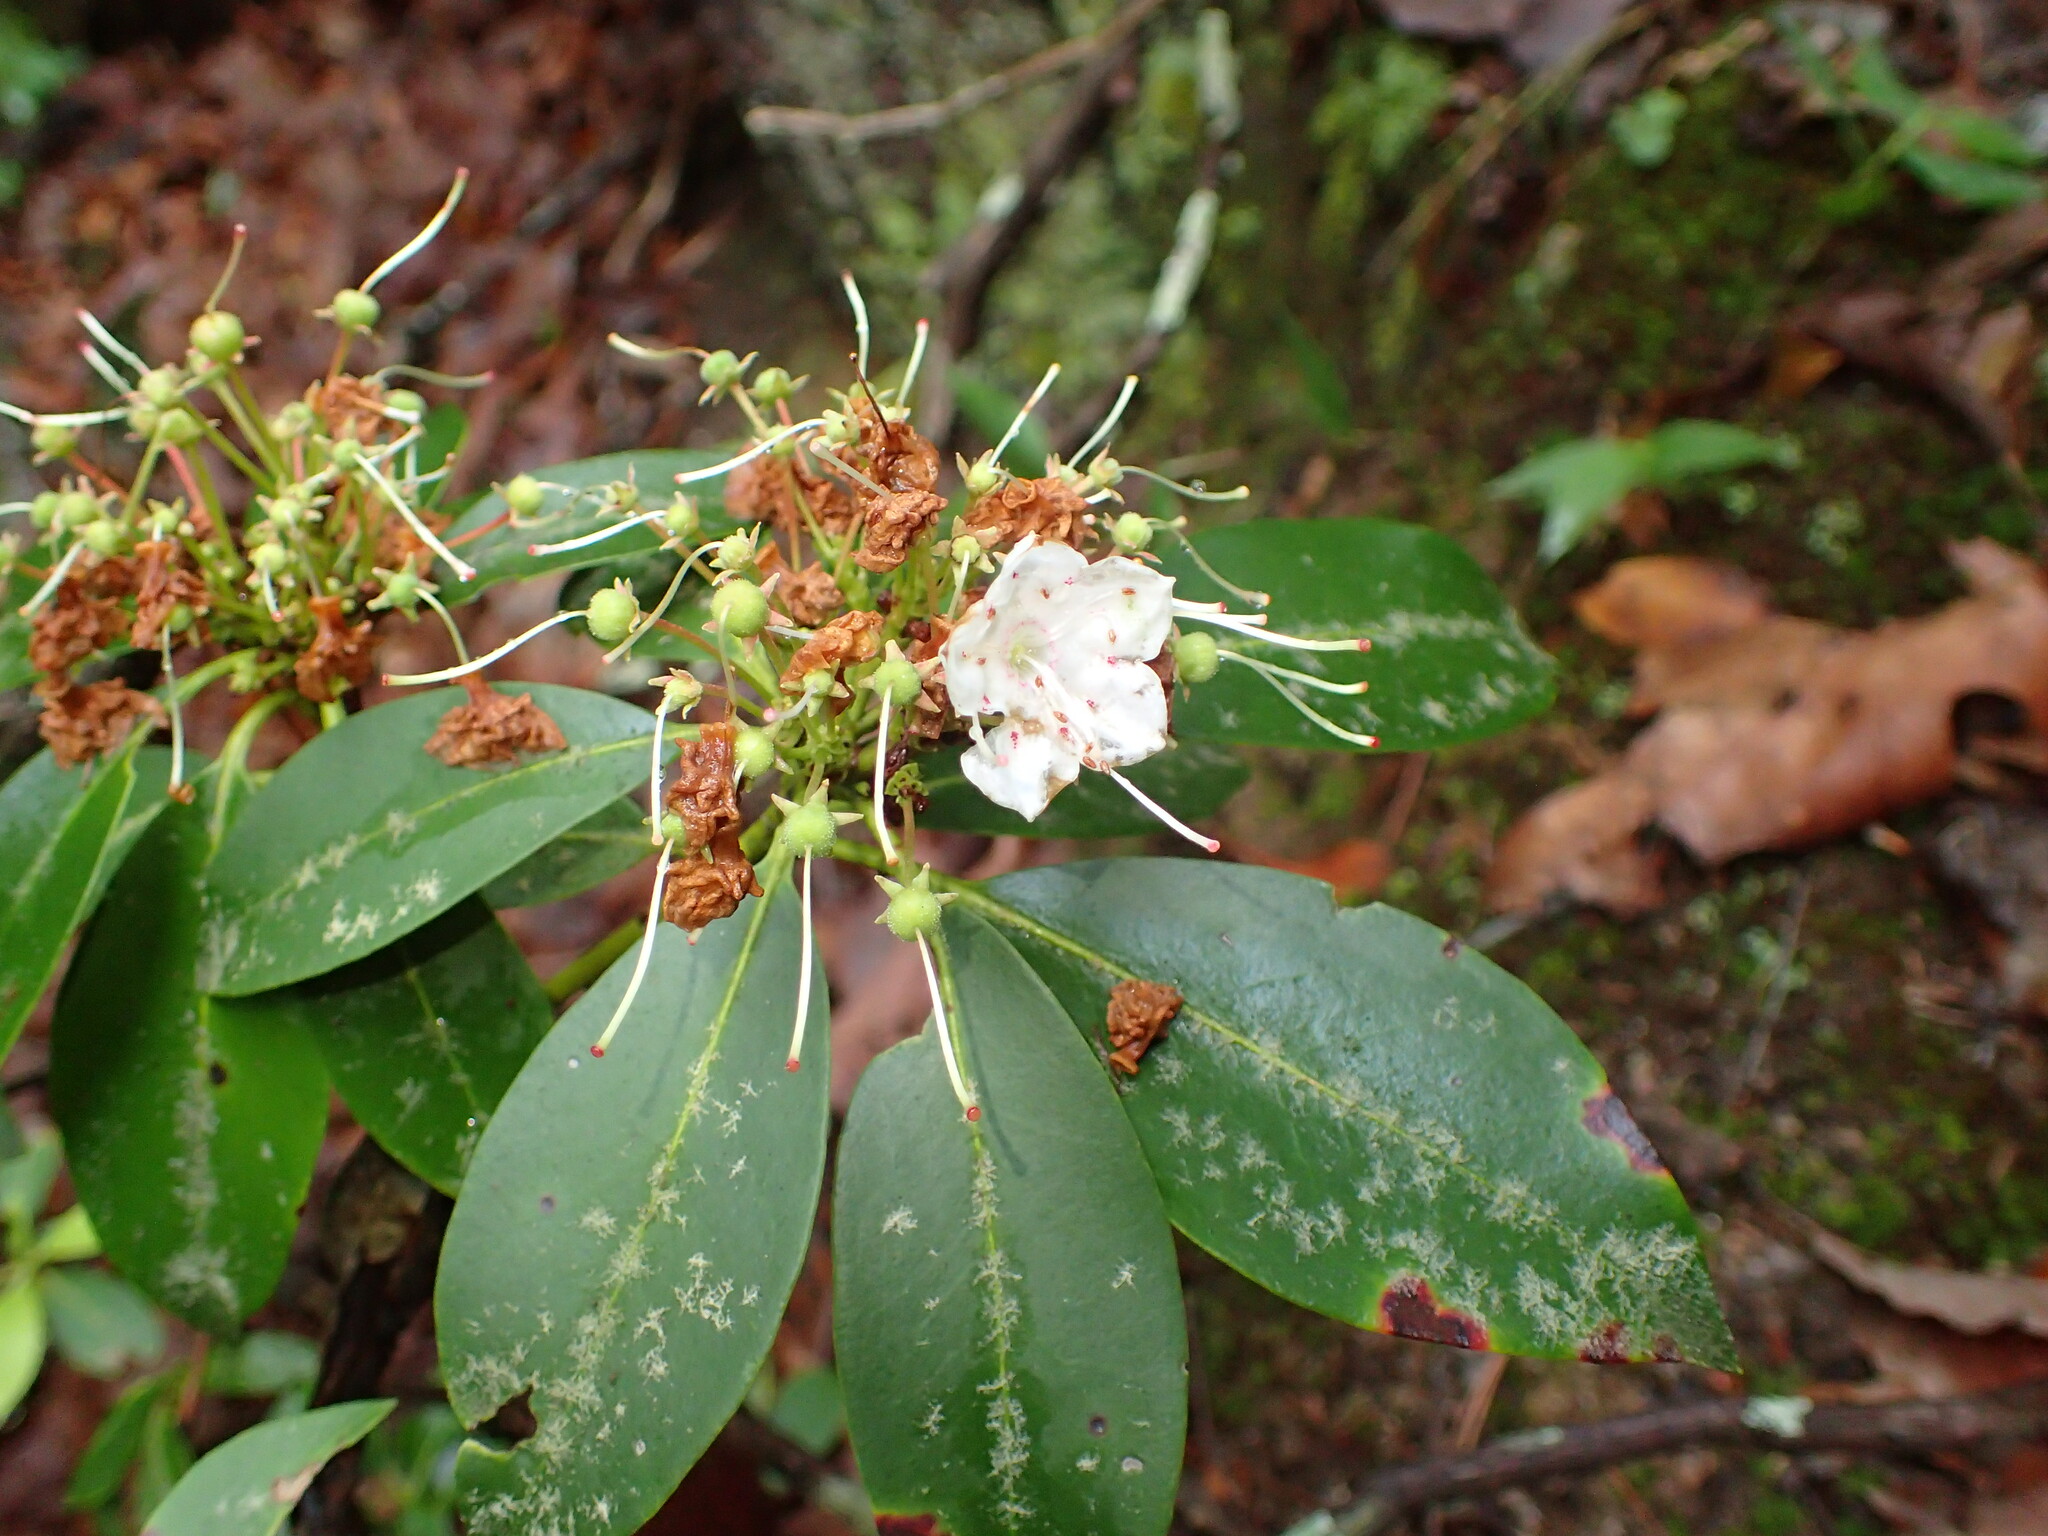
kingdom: Plantae
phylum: Tracheophyta
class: Magnoliopsida
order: Ericales
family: Ericaceae
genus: Kalmia
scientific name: Kalmia latifolia
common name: Mountain-laurel
